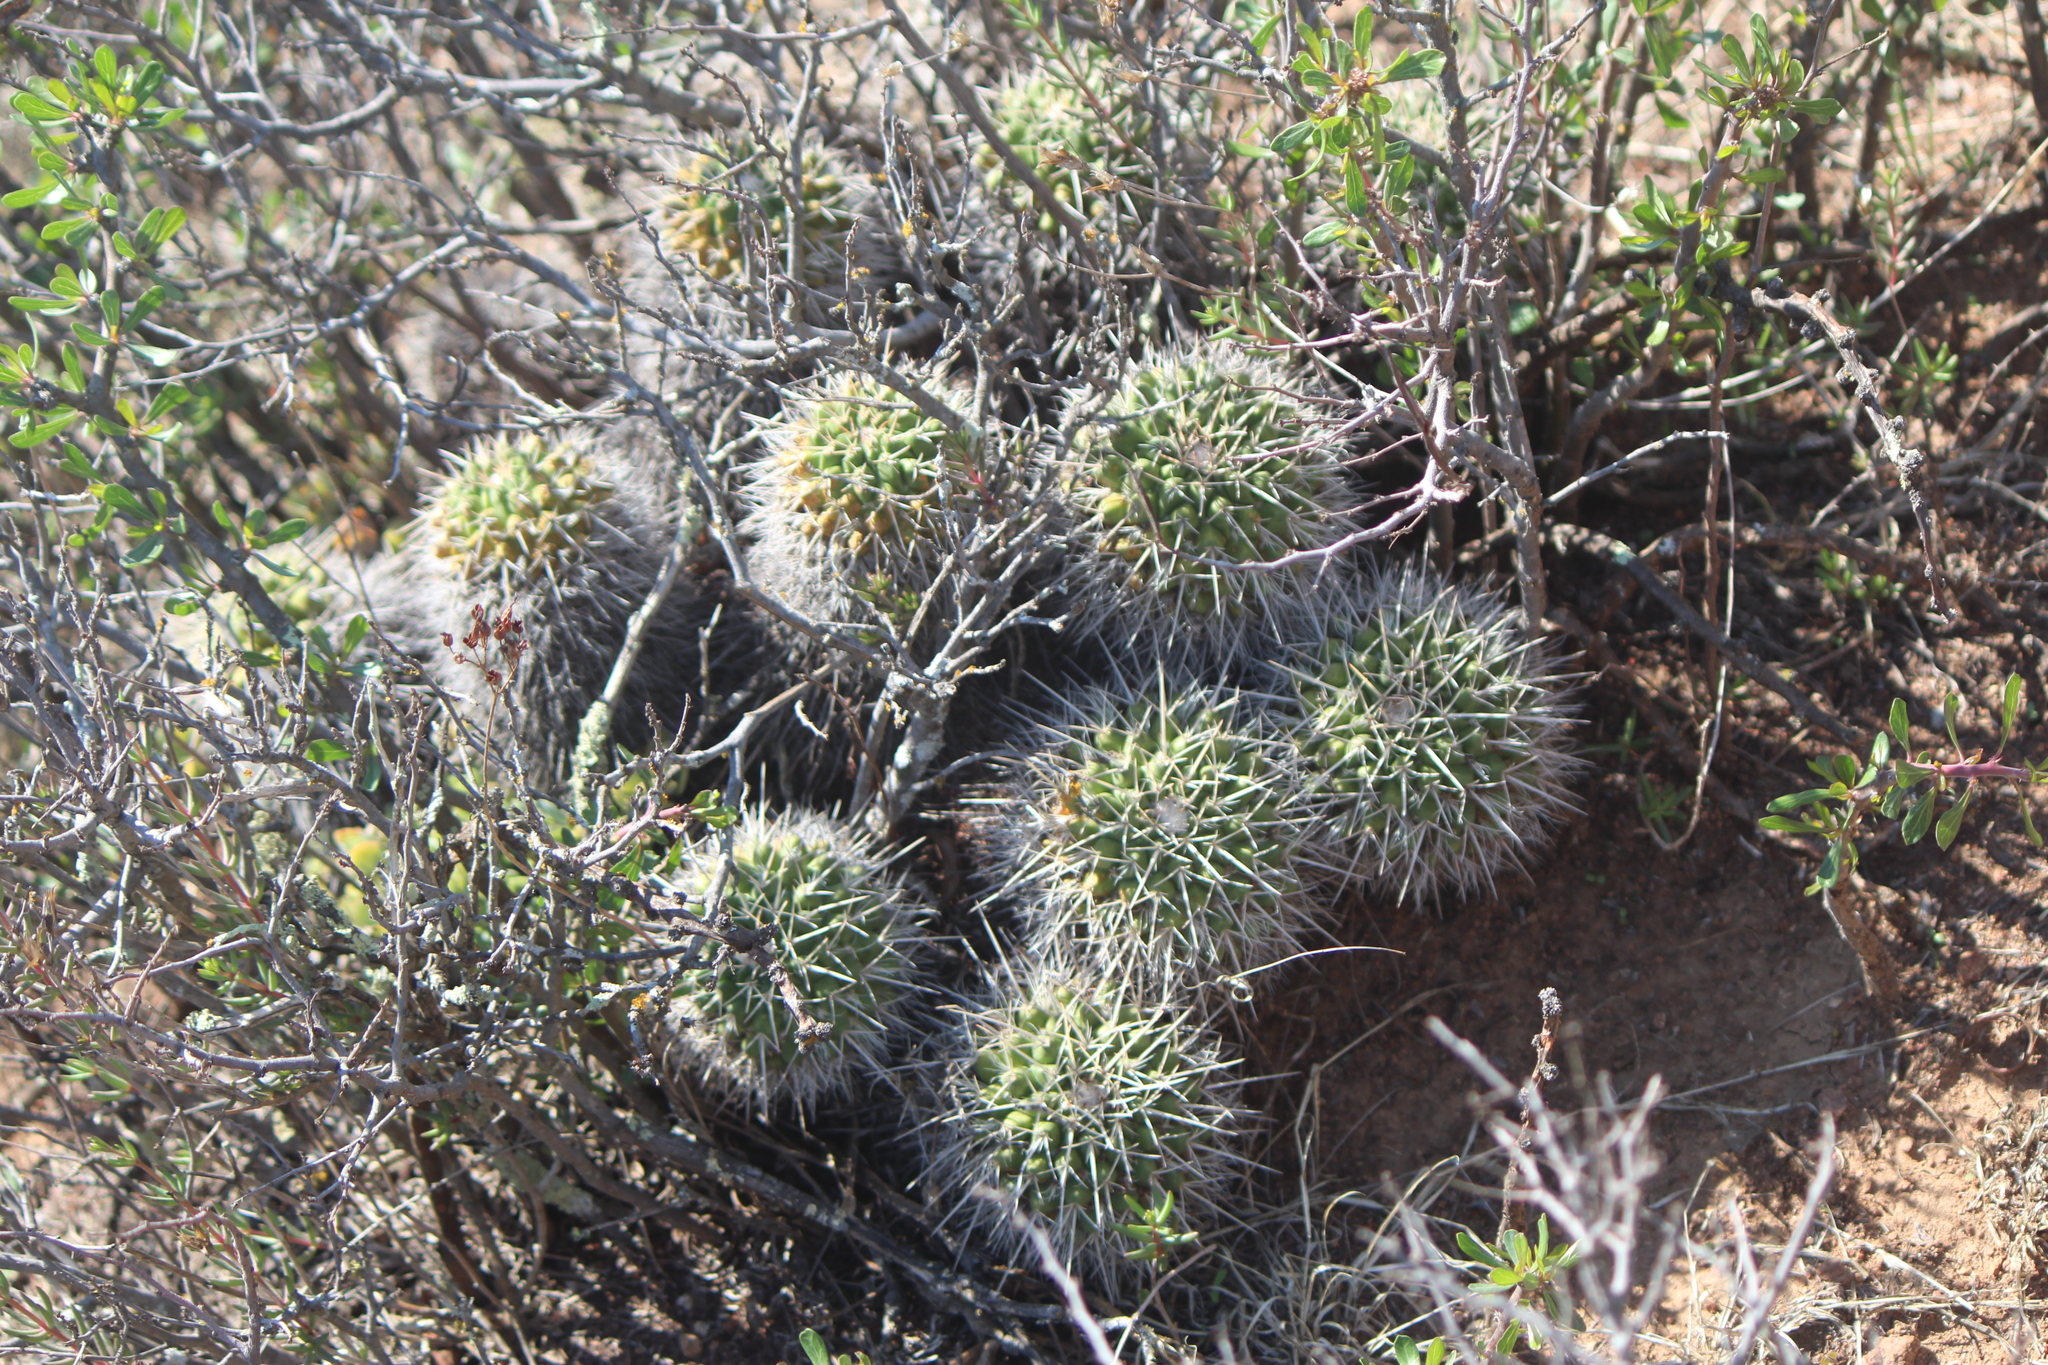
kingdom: Plantae
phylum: Tracheophyta
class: Magnoliopsida
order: Caryophyllales
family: Cactaceae
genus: Mammillaria
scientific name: Mammillaria compressa
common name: Mother-of-hundreds
